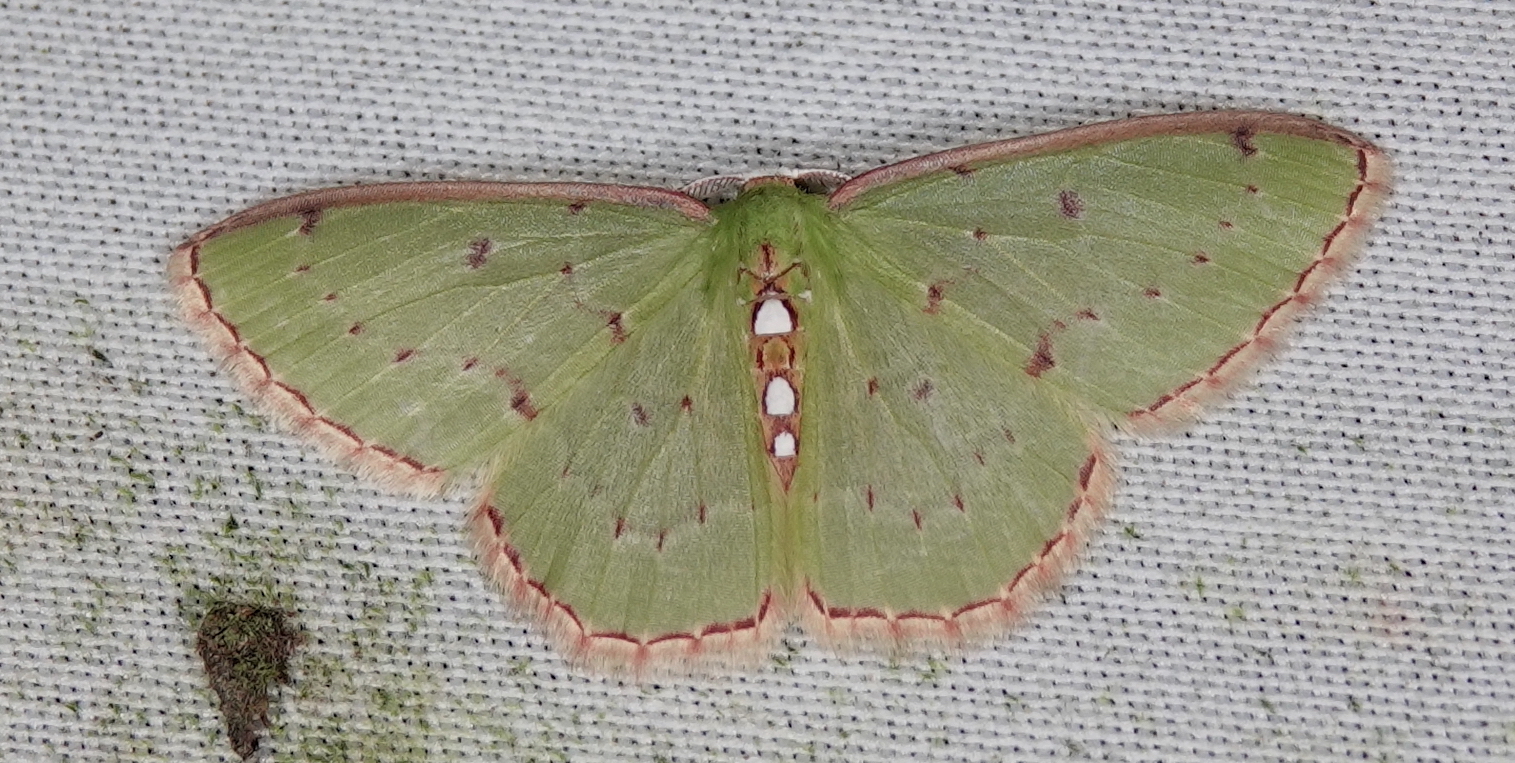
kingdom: Animalia
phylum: Arthropoda
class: Insecta
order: Lepidoptera
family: Geometridae
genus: Lissochlora
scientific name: Lissochlora albociliaria
